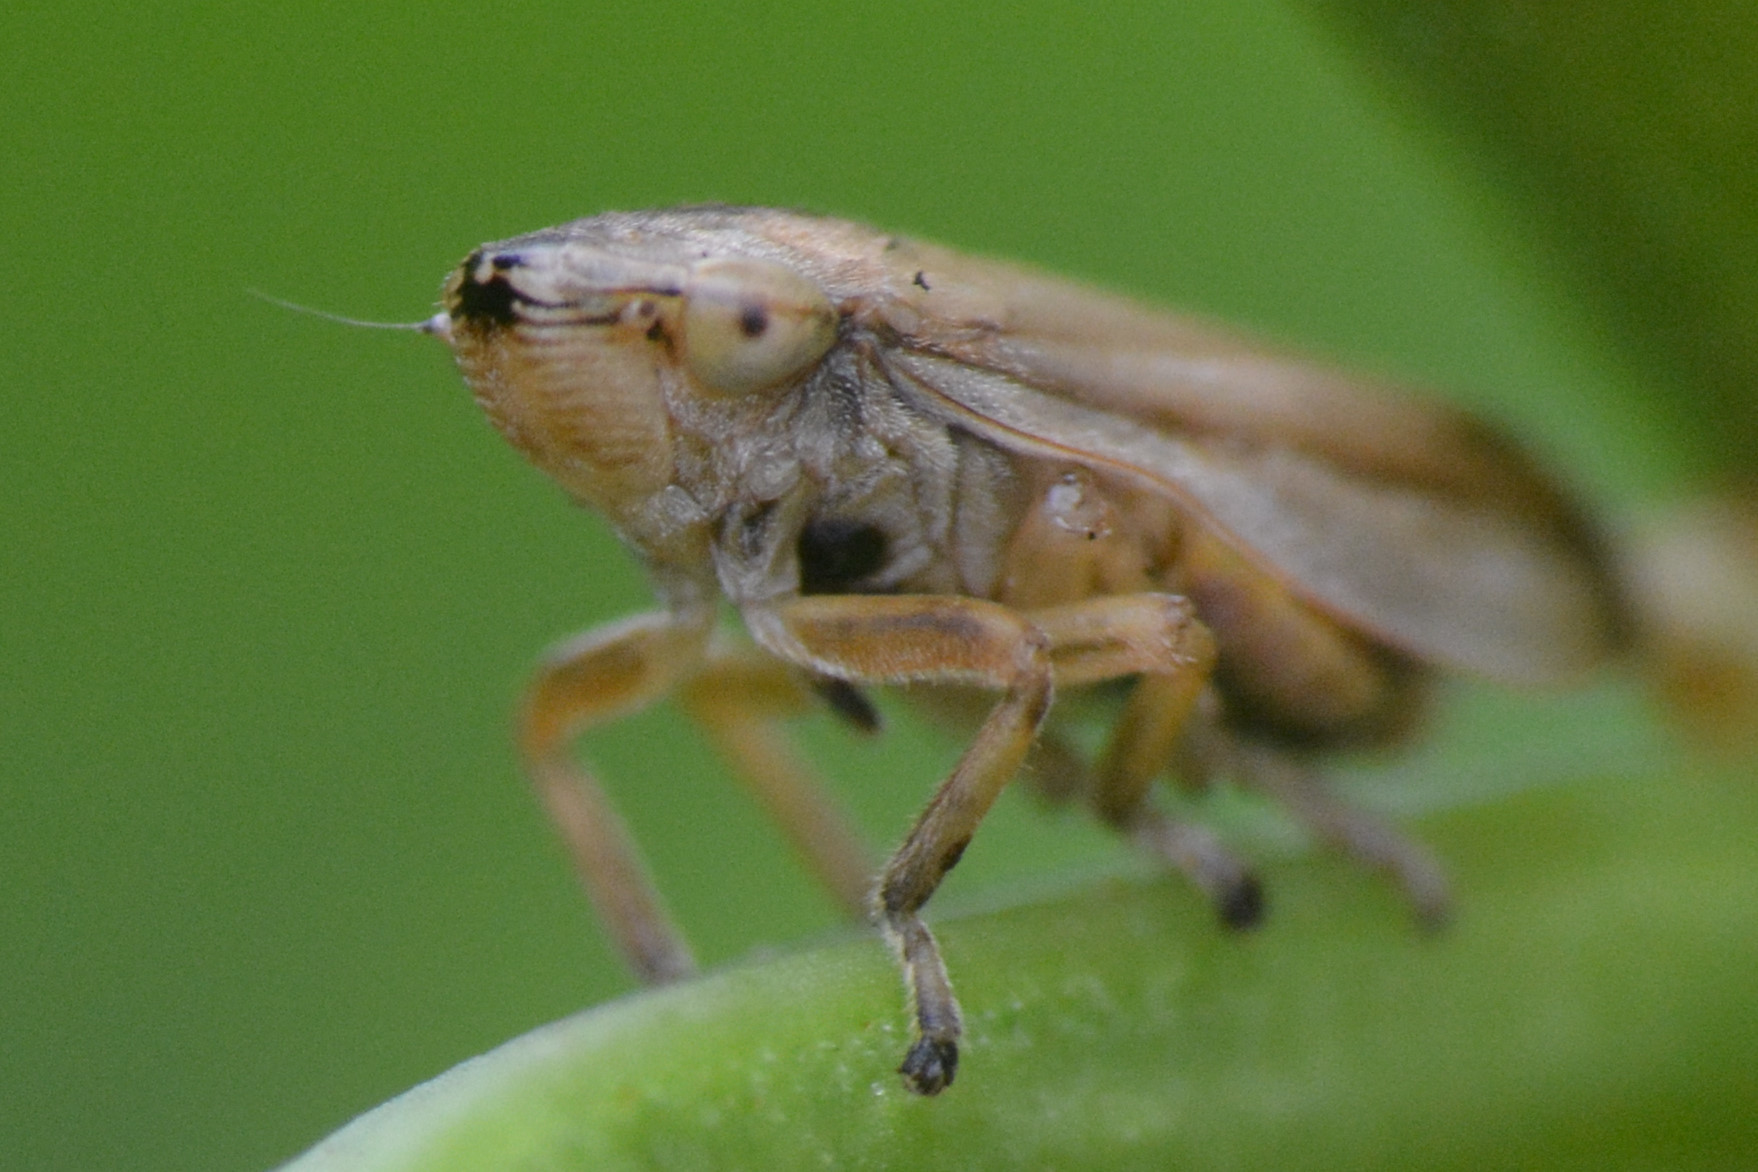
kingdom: Animalia
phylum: Arthropoda
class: Insecta
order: Hemiptera
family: Aphrophoridae
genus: Philaenus
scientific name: Philaenus spumarius
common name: Meadow spittlebug
